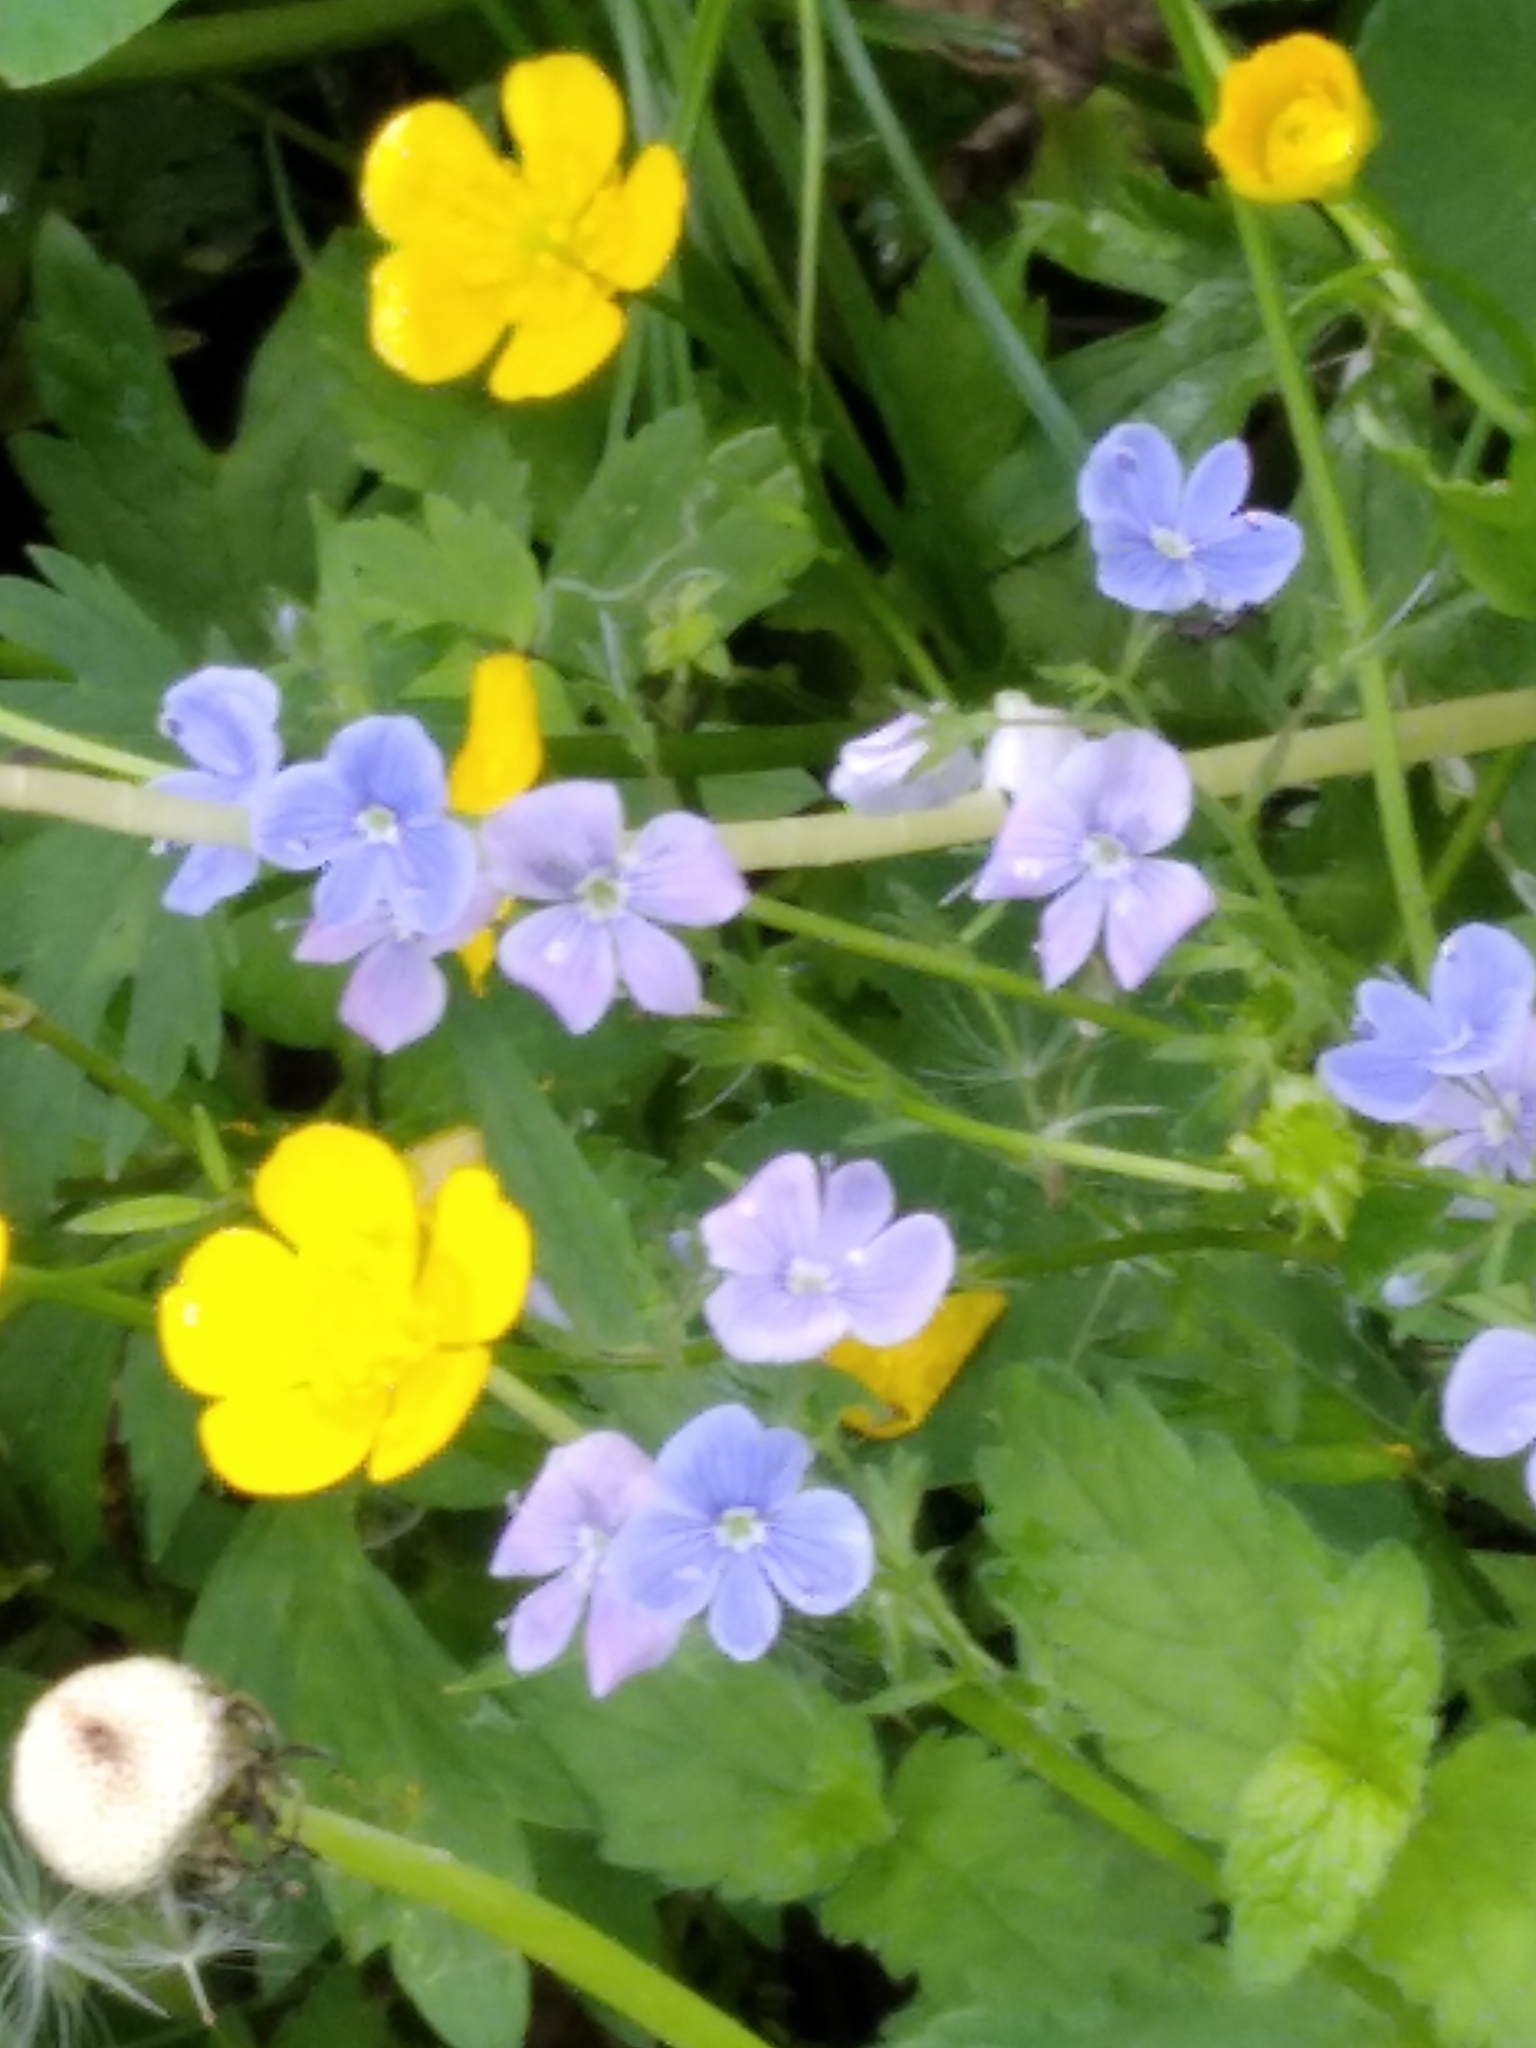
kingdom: Plantae
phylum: Tracheophyta
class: Magnoliopsida
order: Lamiales
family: Plantaginaceae
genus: Veronica
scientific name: Veronica chamaedrys
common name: Germander speedwell
